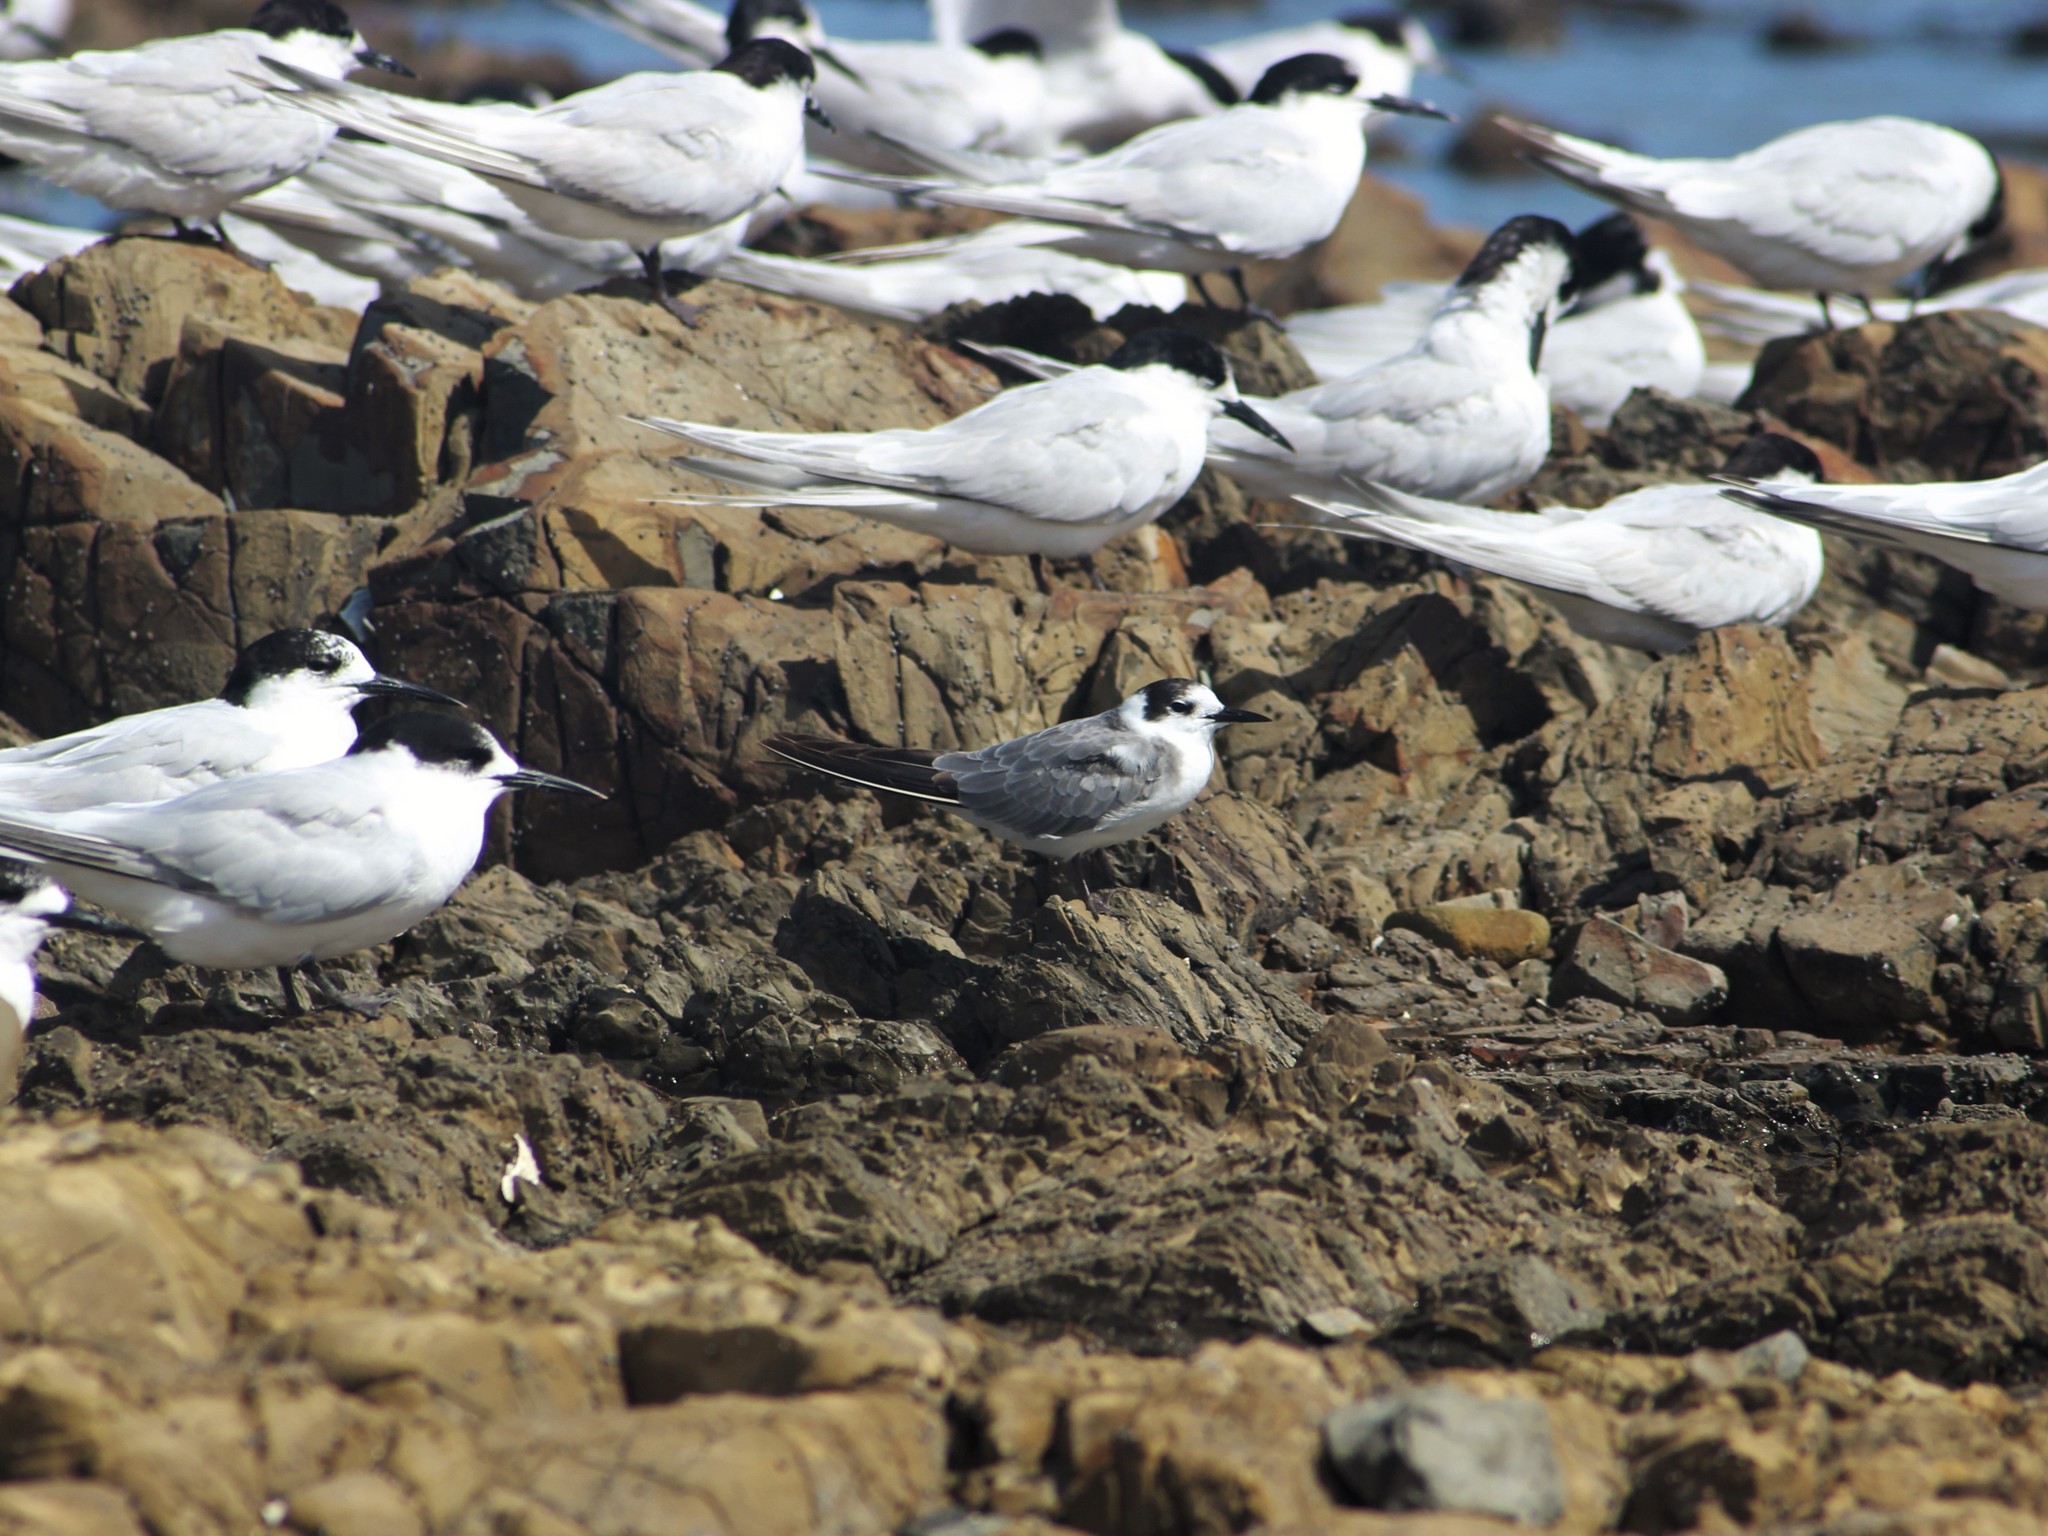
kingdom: Animalia
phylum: Chordata
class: Aves
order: Charadriiformes
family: Laridae
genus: Chlidonias
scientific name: Chlidonias niger
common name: Black tern
